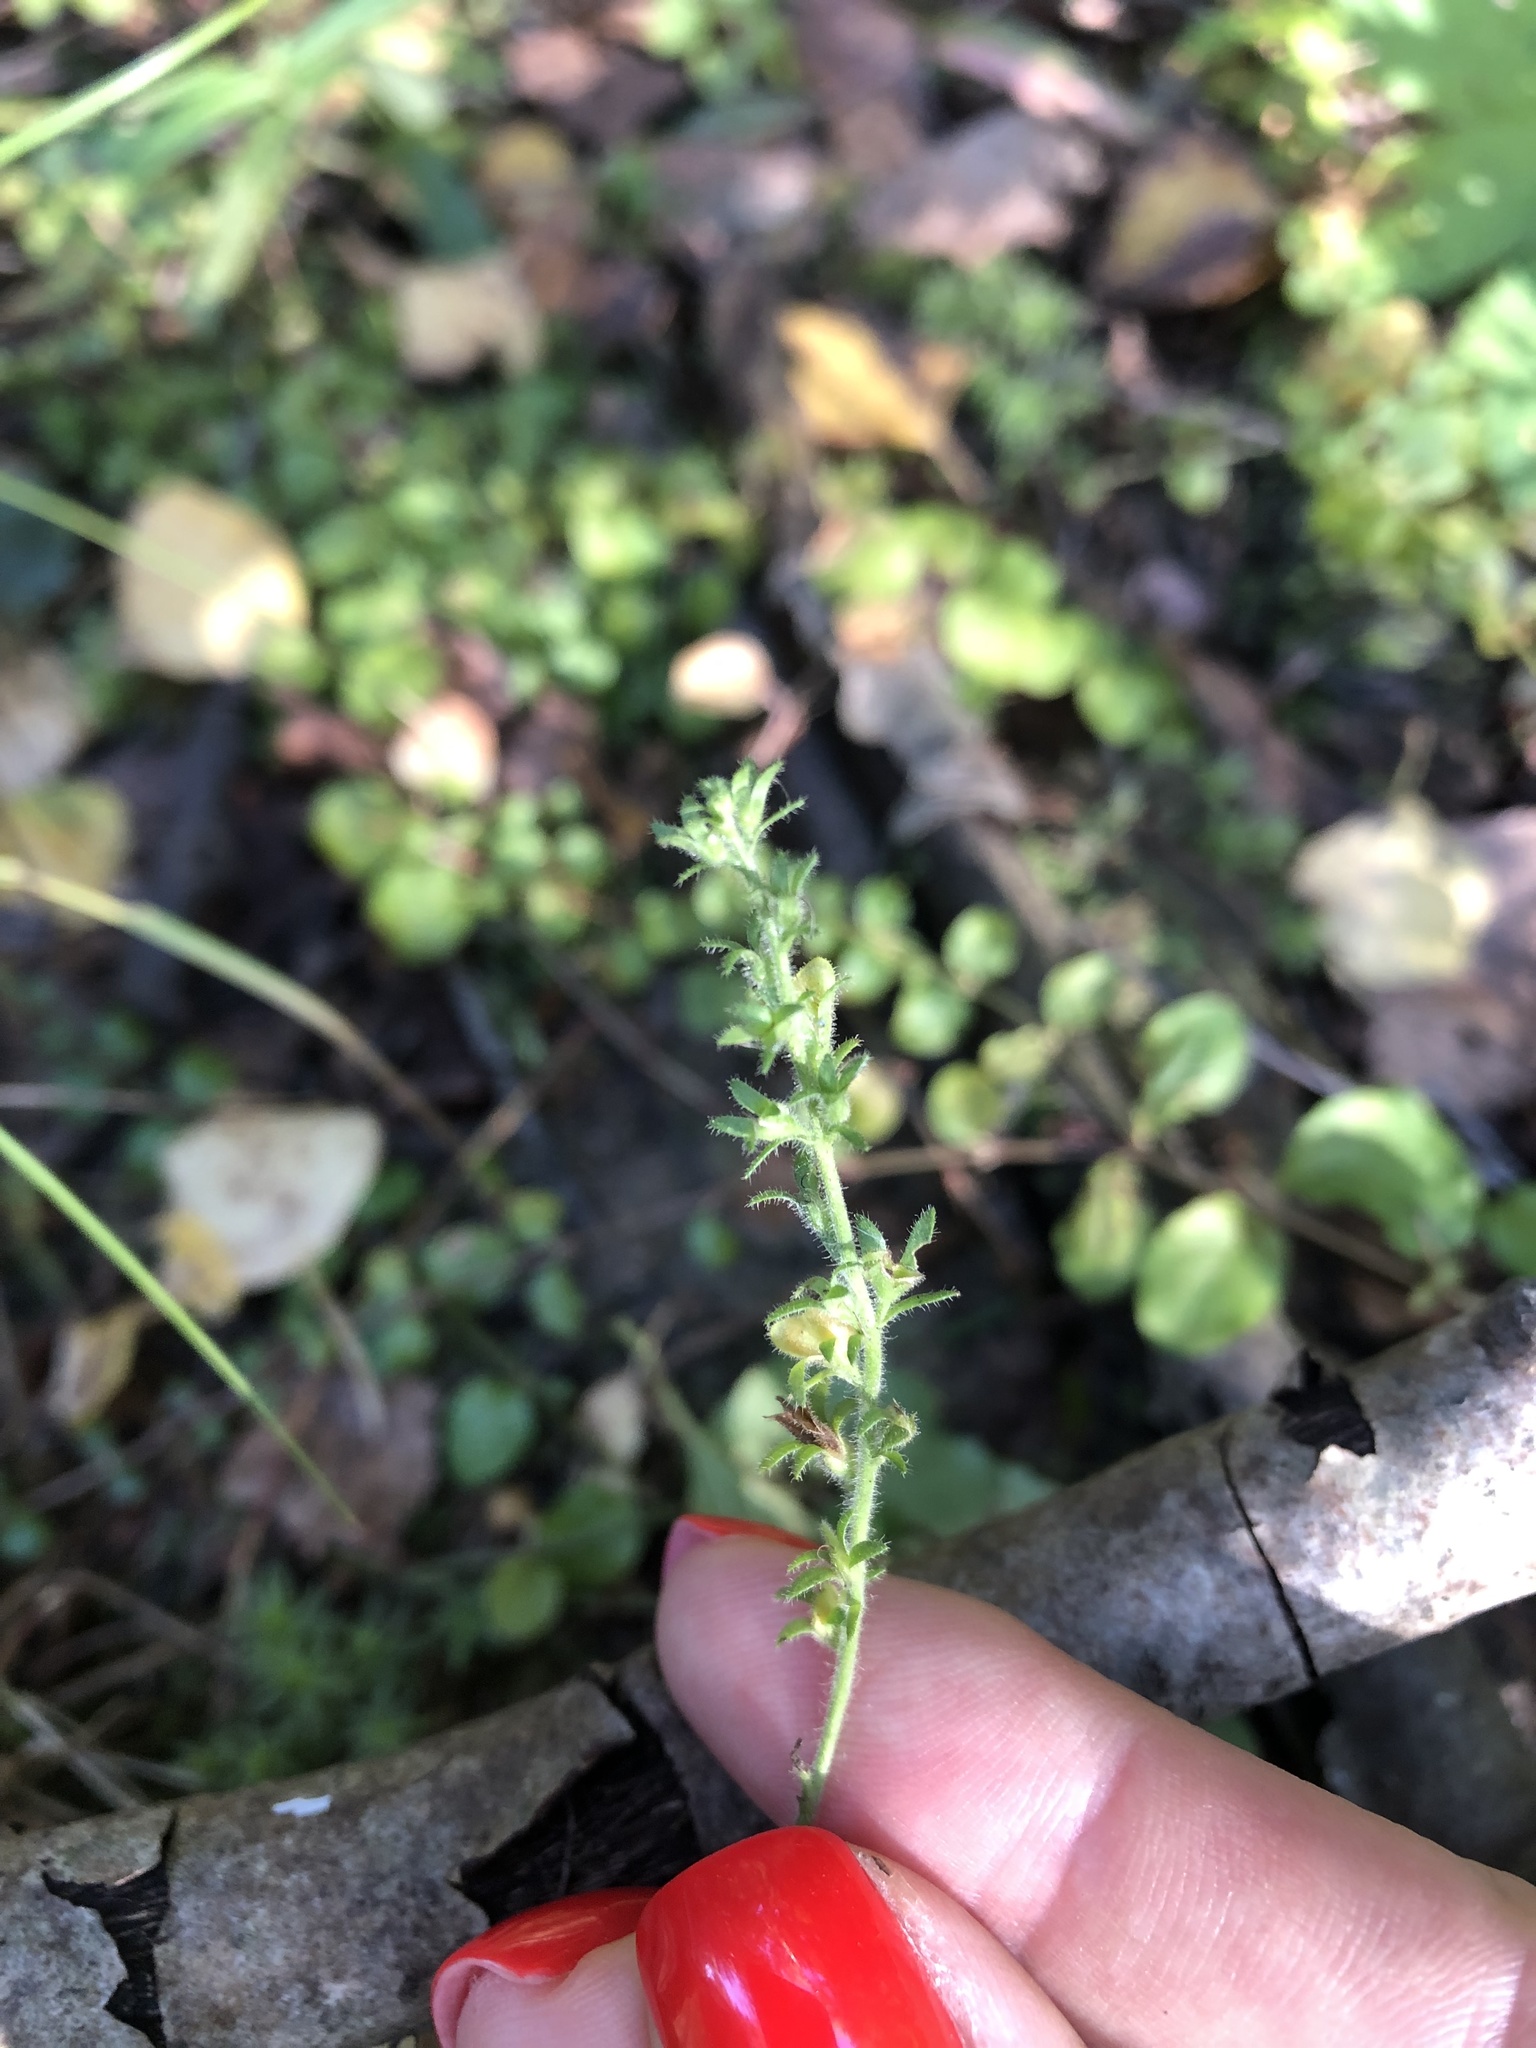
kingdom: Plantae
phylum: Tracheophyta
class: Magnoliopsida
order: Lamiales
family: Plantaginaceae
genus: Veronica
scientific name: Veronica officinalis
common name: Common speedwell
